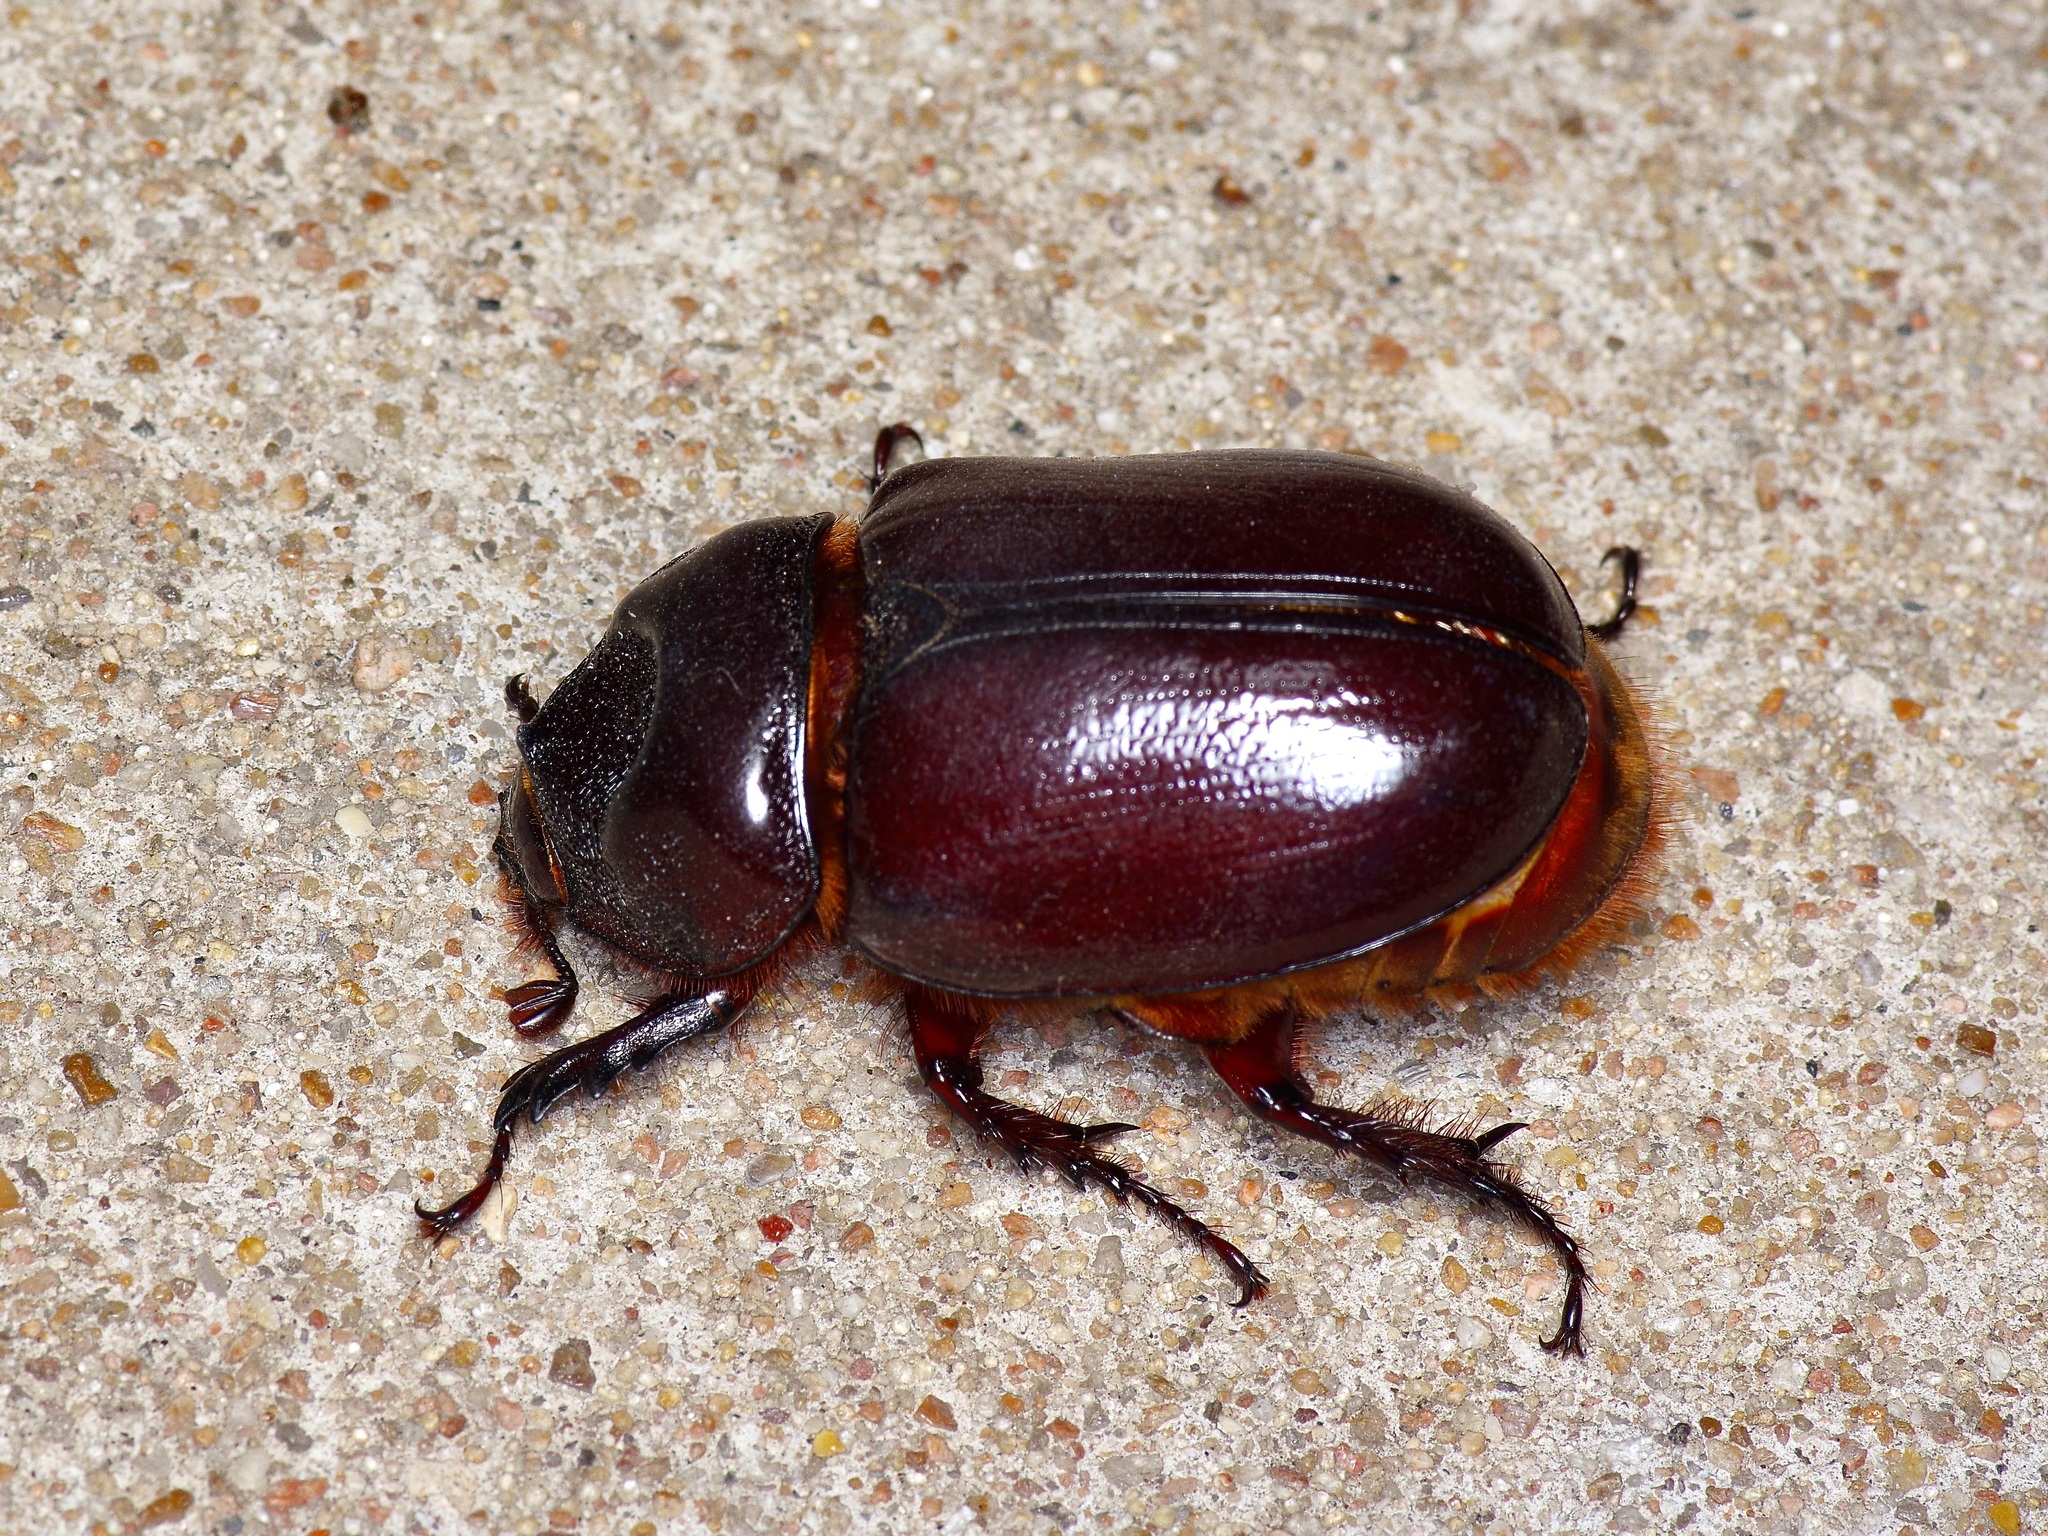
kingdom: Animalia
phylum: Arthropoda
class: Insecta
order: Coleoptera
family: Scarabaeidae
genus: Strategus
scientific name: Strategus aloeus
